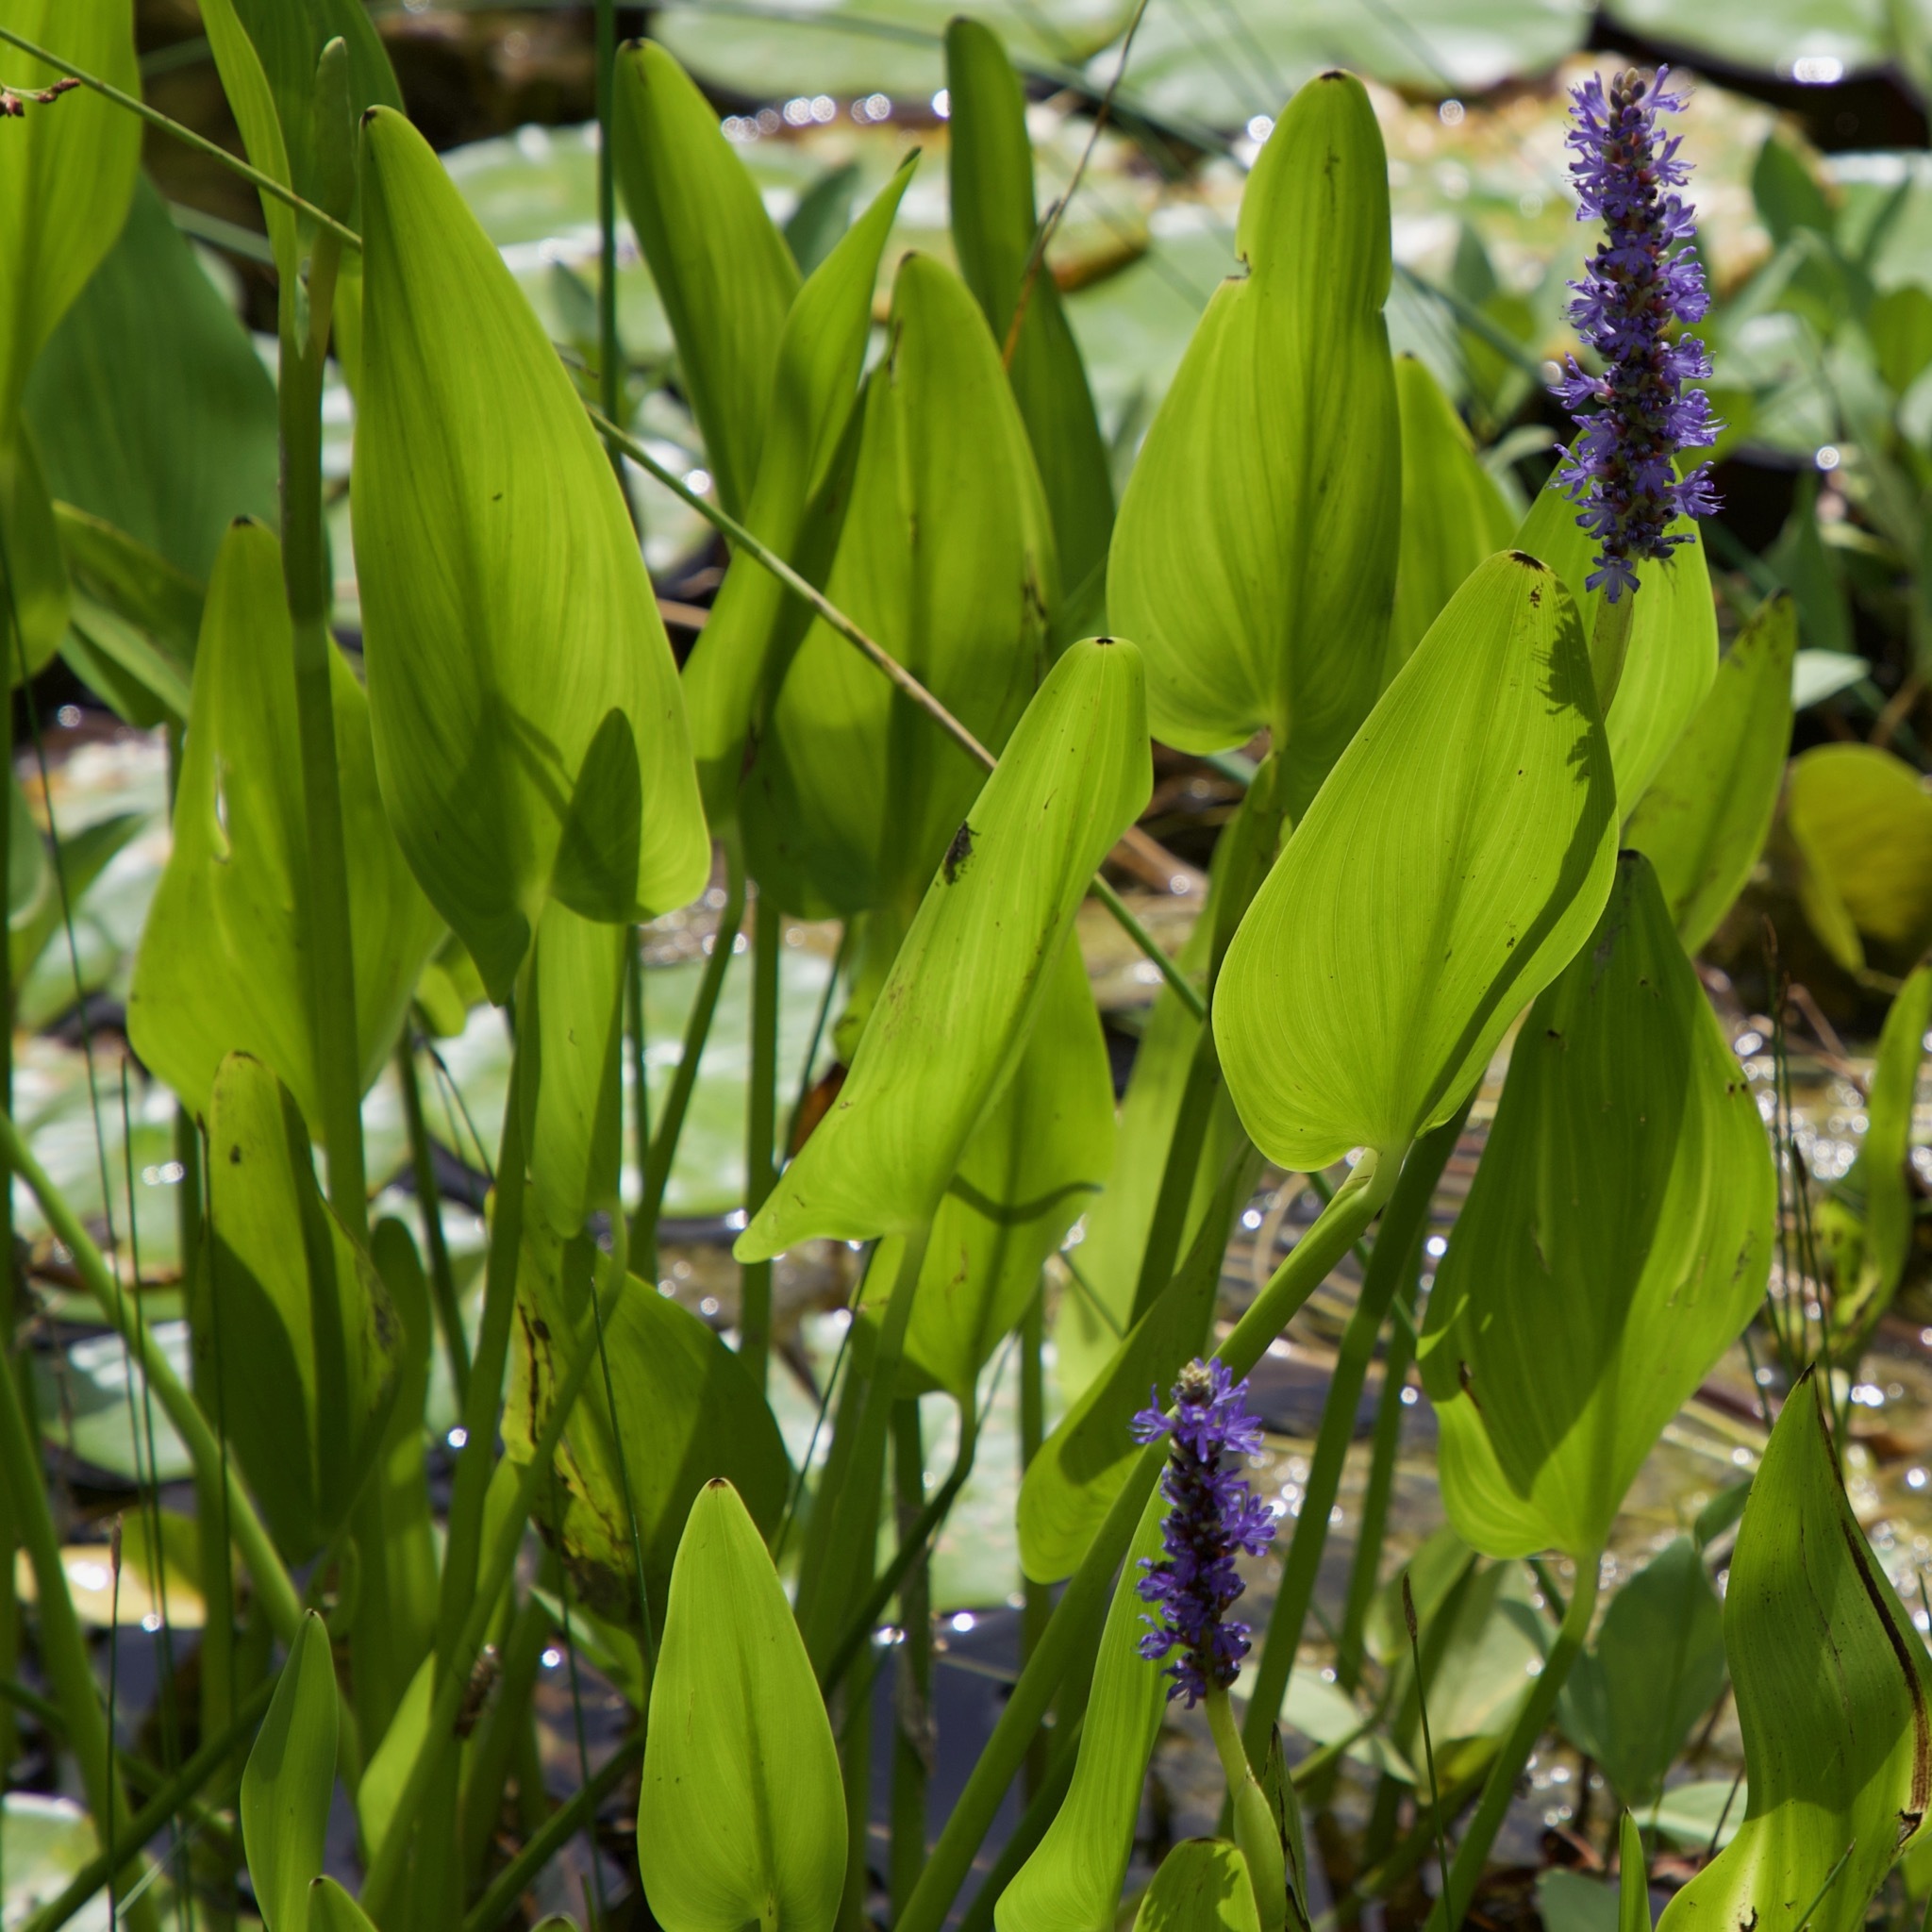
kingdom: Plantae
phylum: Tracheophyta
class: Liliopsida
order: Commelinales
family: Pontederiaceae
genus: Pontederia
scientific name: Pontederia cordata
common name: Pickerelweed
